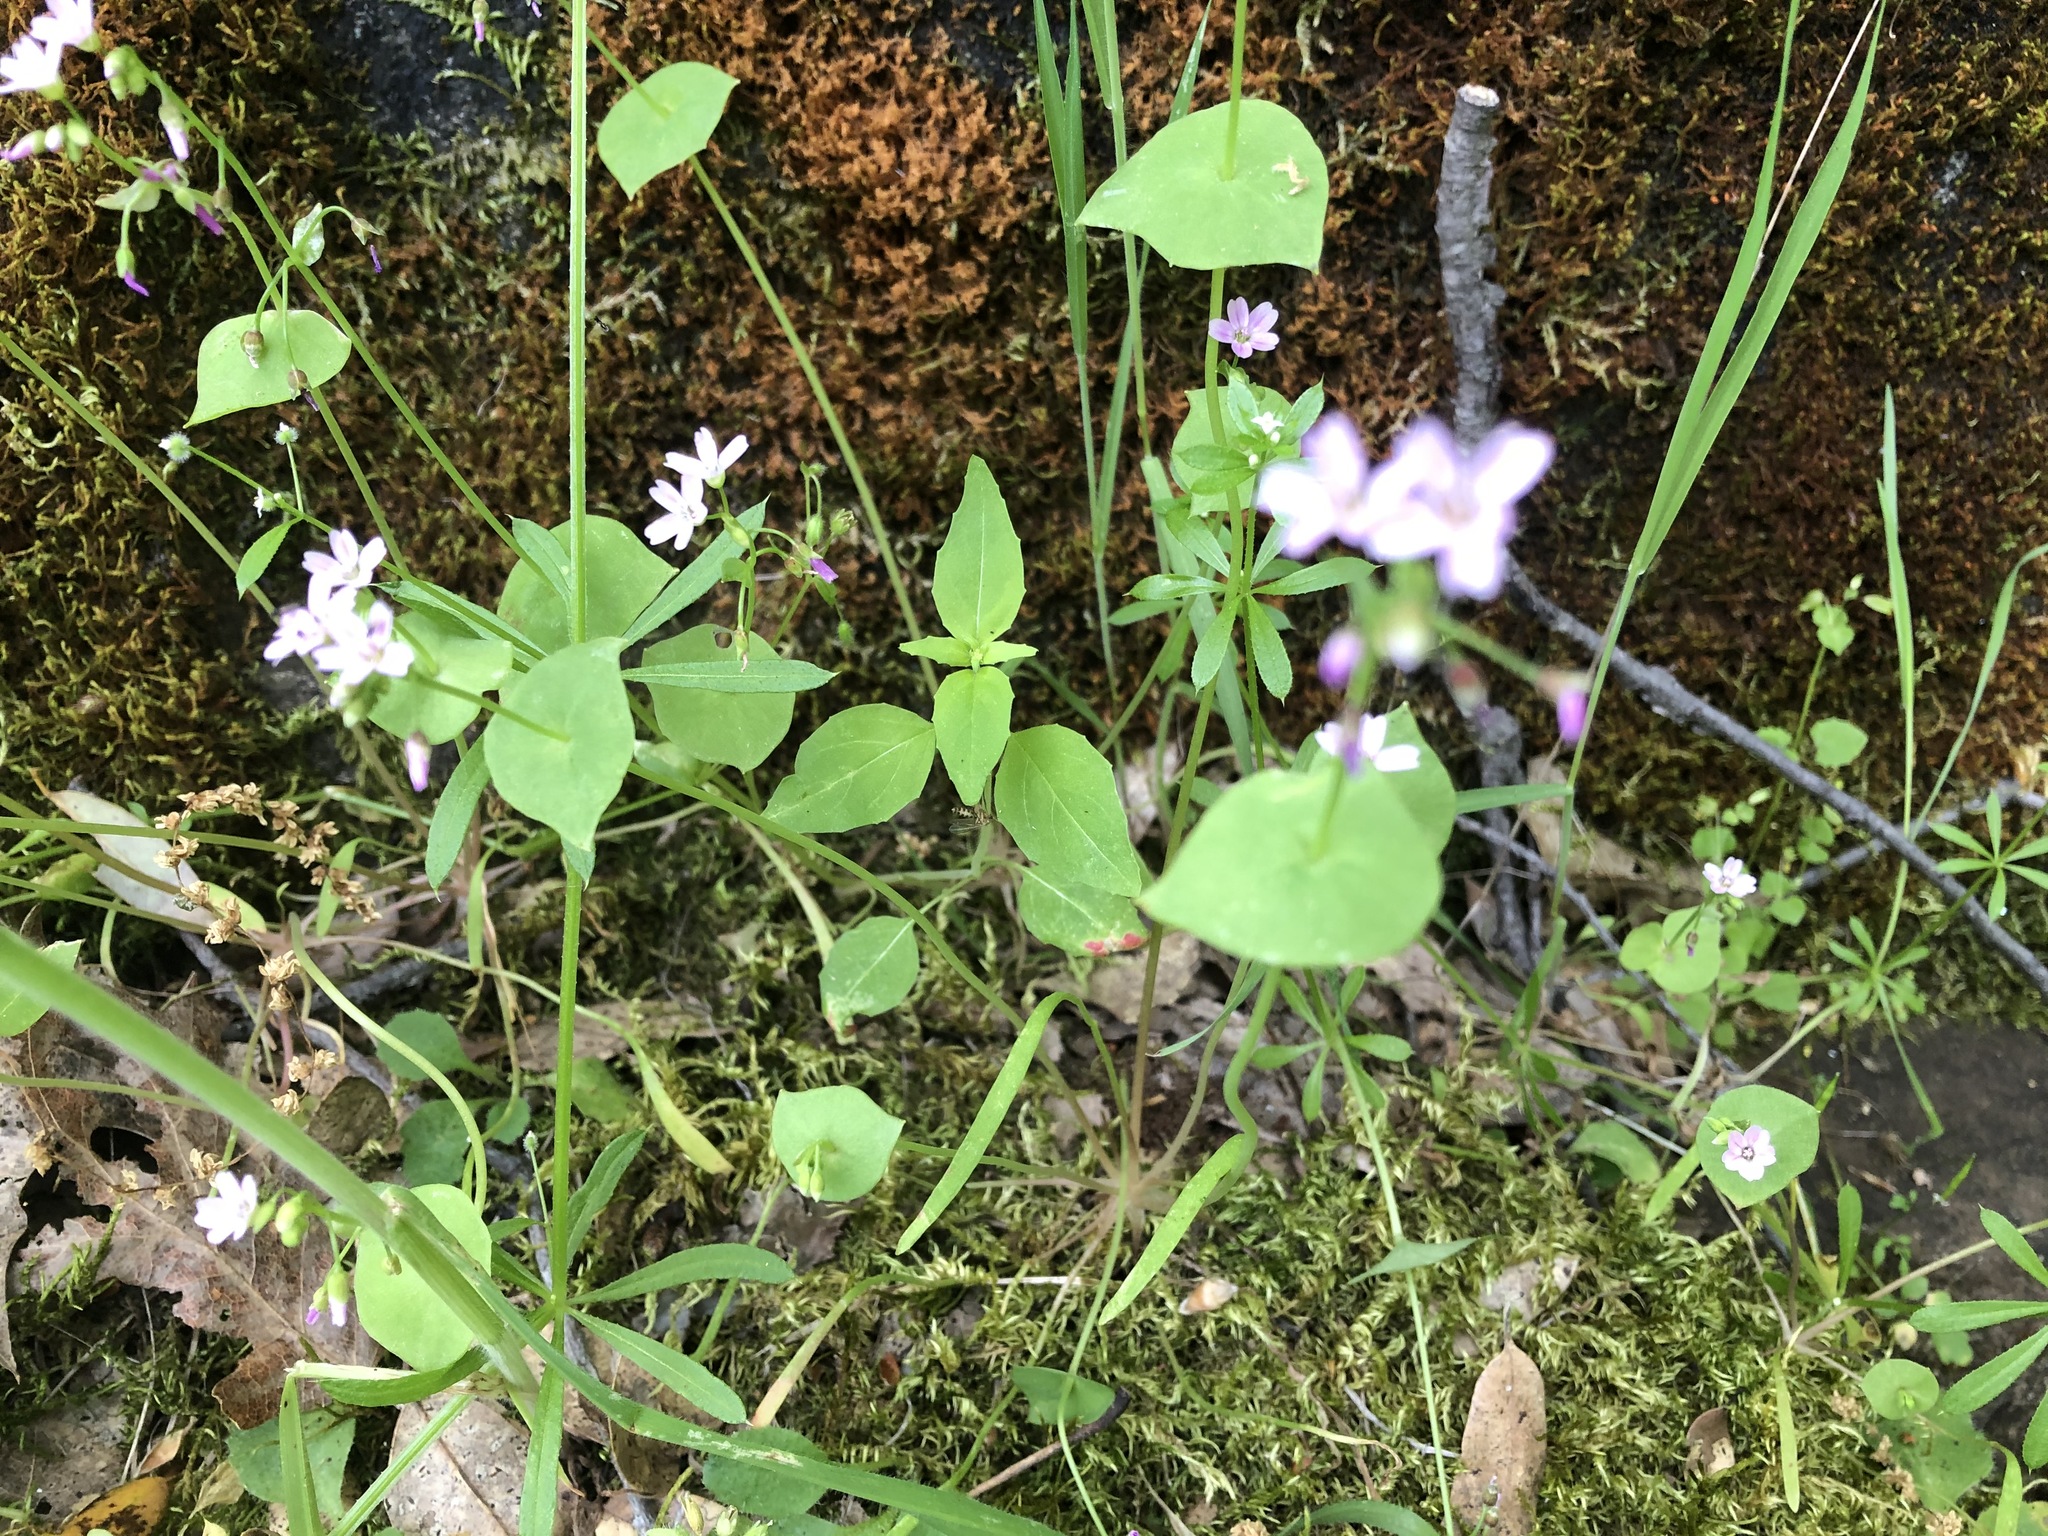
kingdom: Plantae
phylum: Tracheophyta
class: Magnoliopsida
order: Caryophyllales
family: Montiaceae
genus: Claytonia
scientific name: Claytonia parviflora
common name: Indian-lettuce
